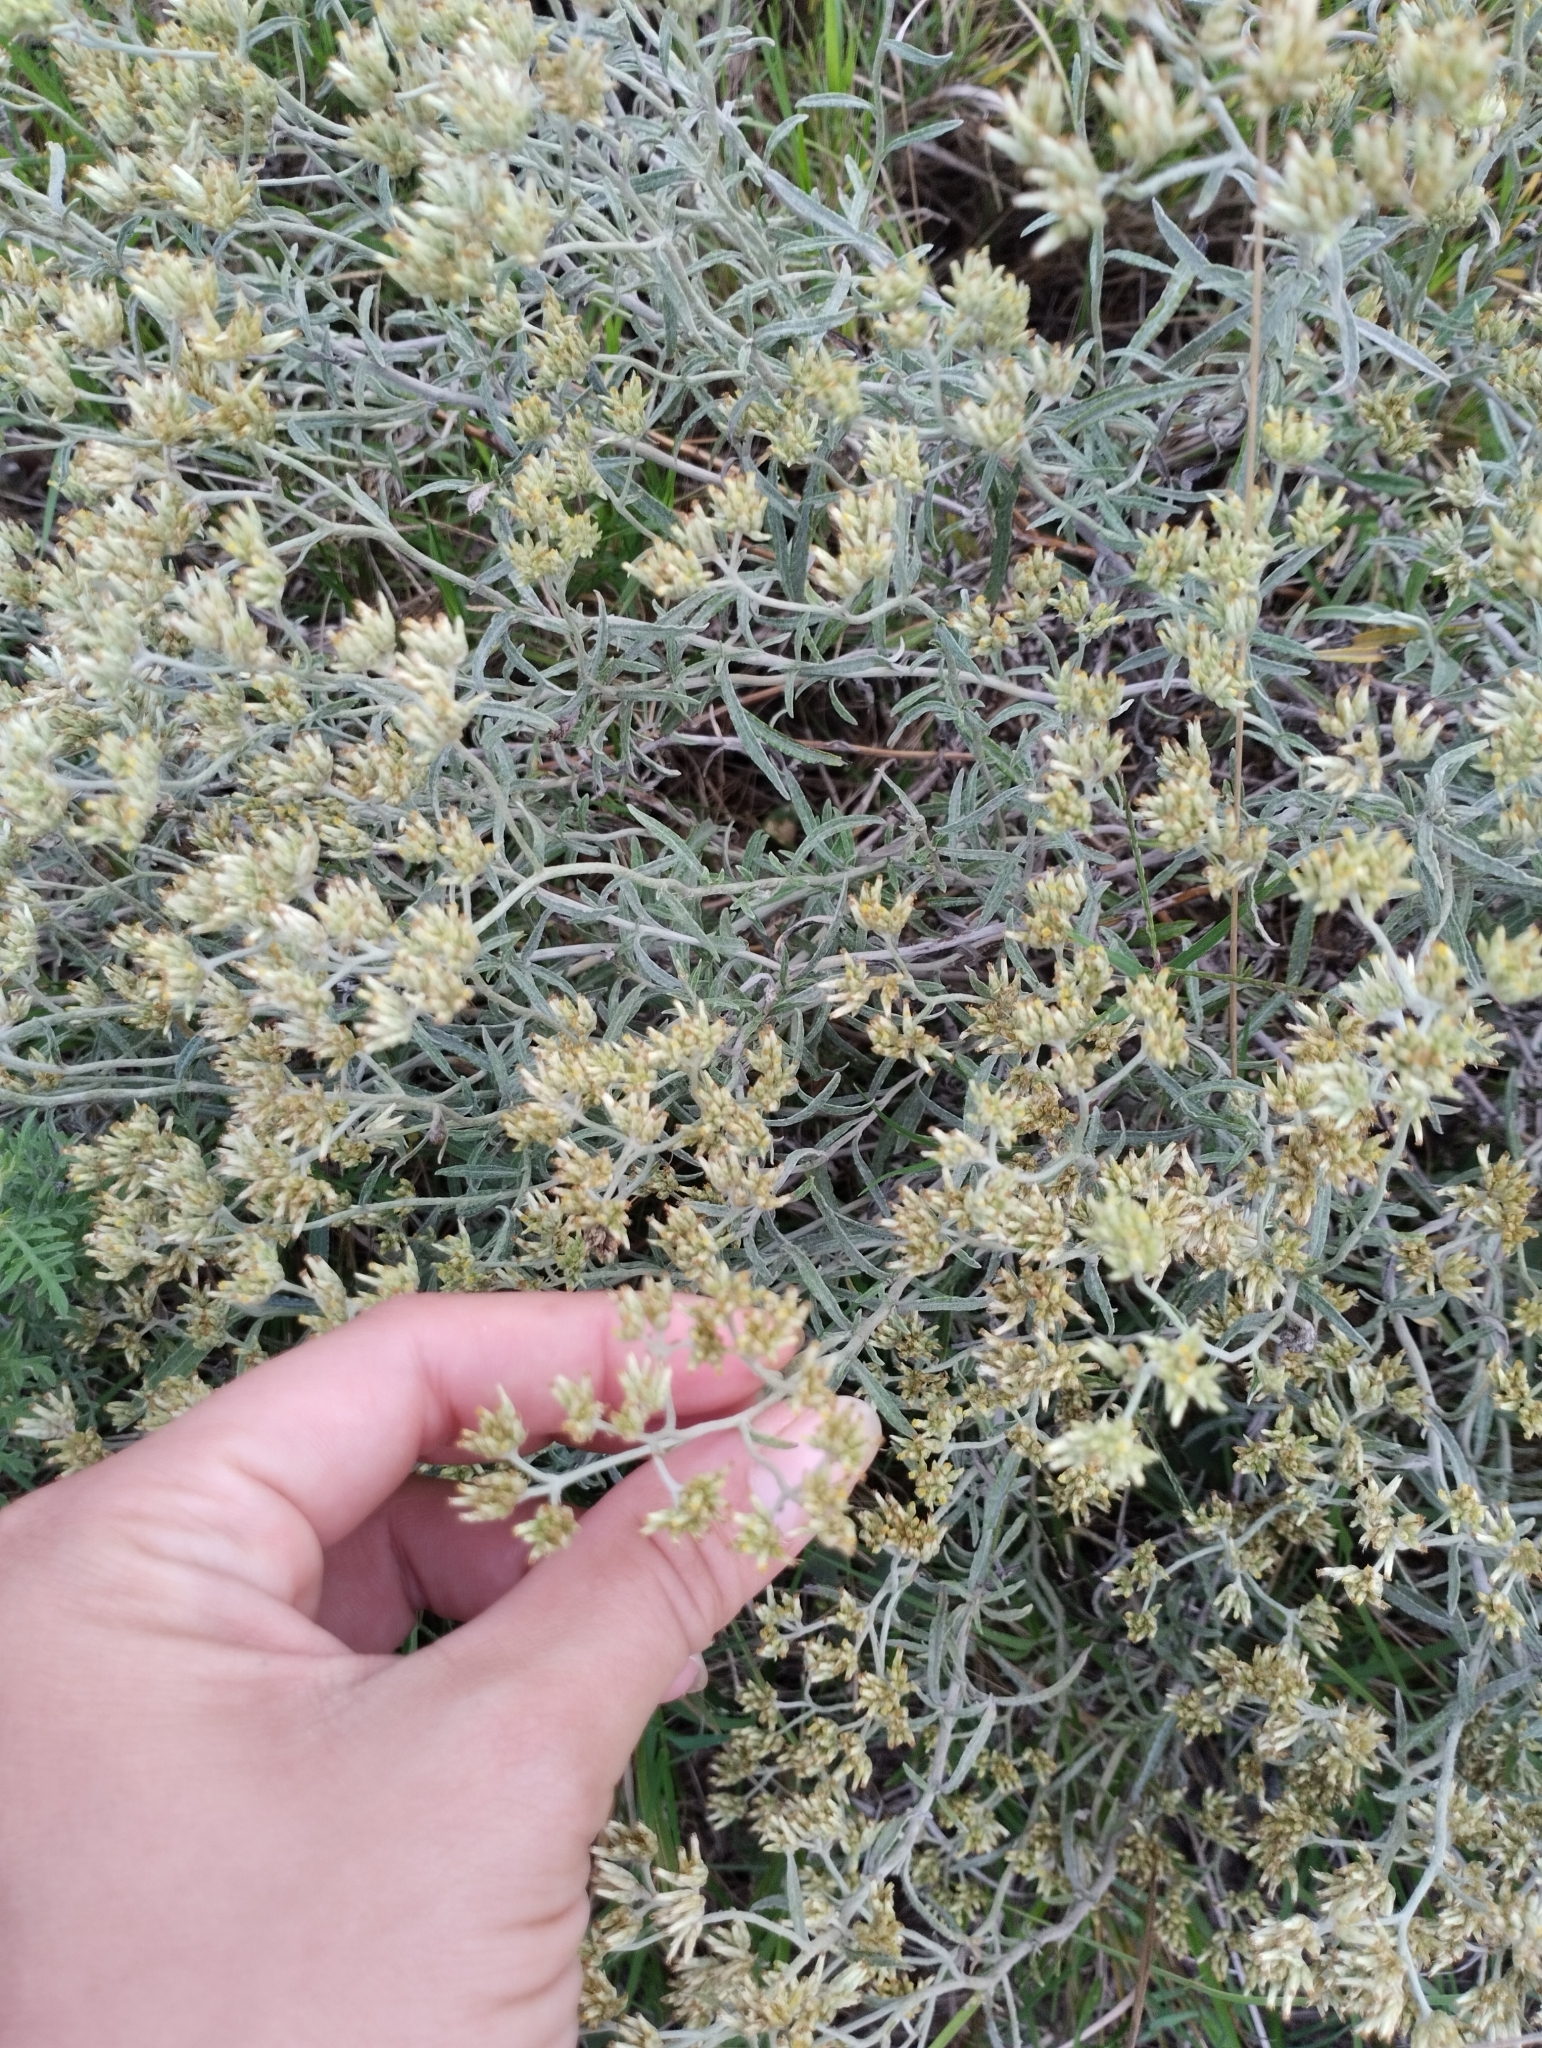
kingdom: Plantae
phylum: Tracheophyta
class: Magnoliopsida
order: Asterales
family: Asteraceae
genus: Achyrocline
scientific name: Achyrocline satureioides
